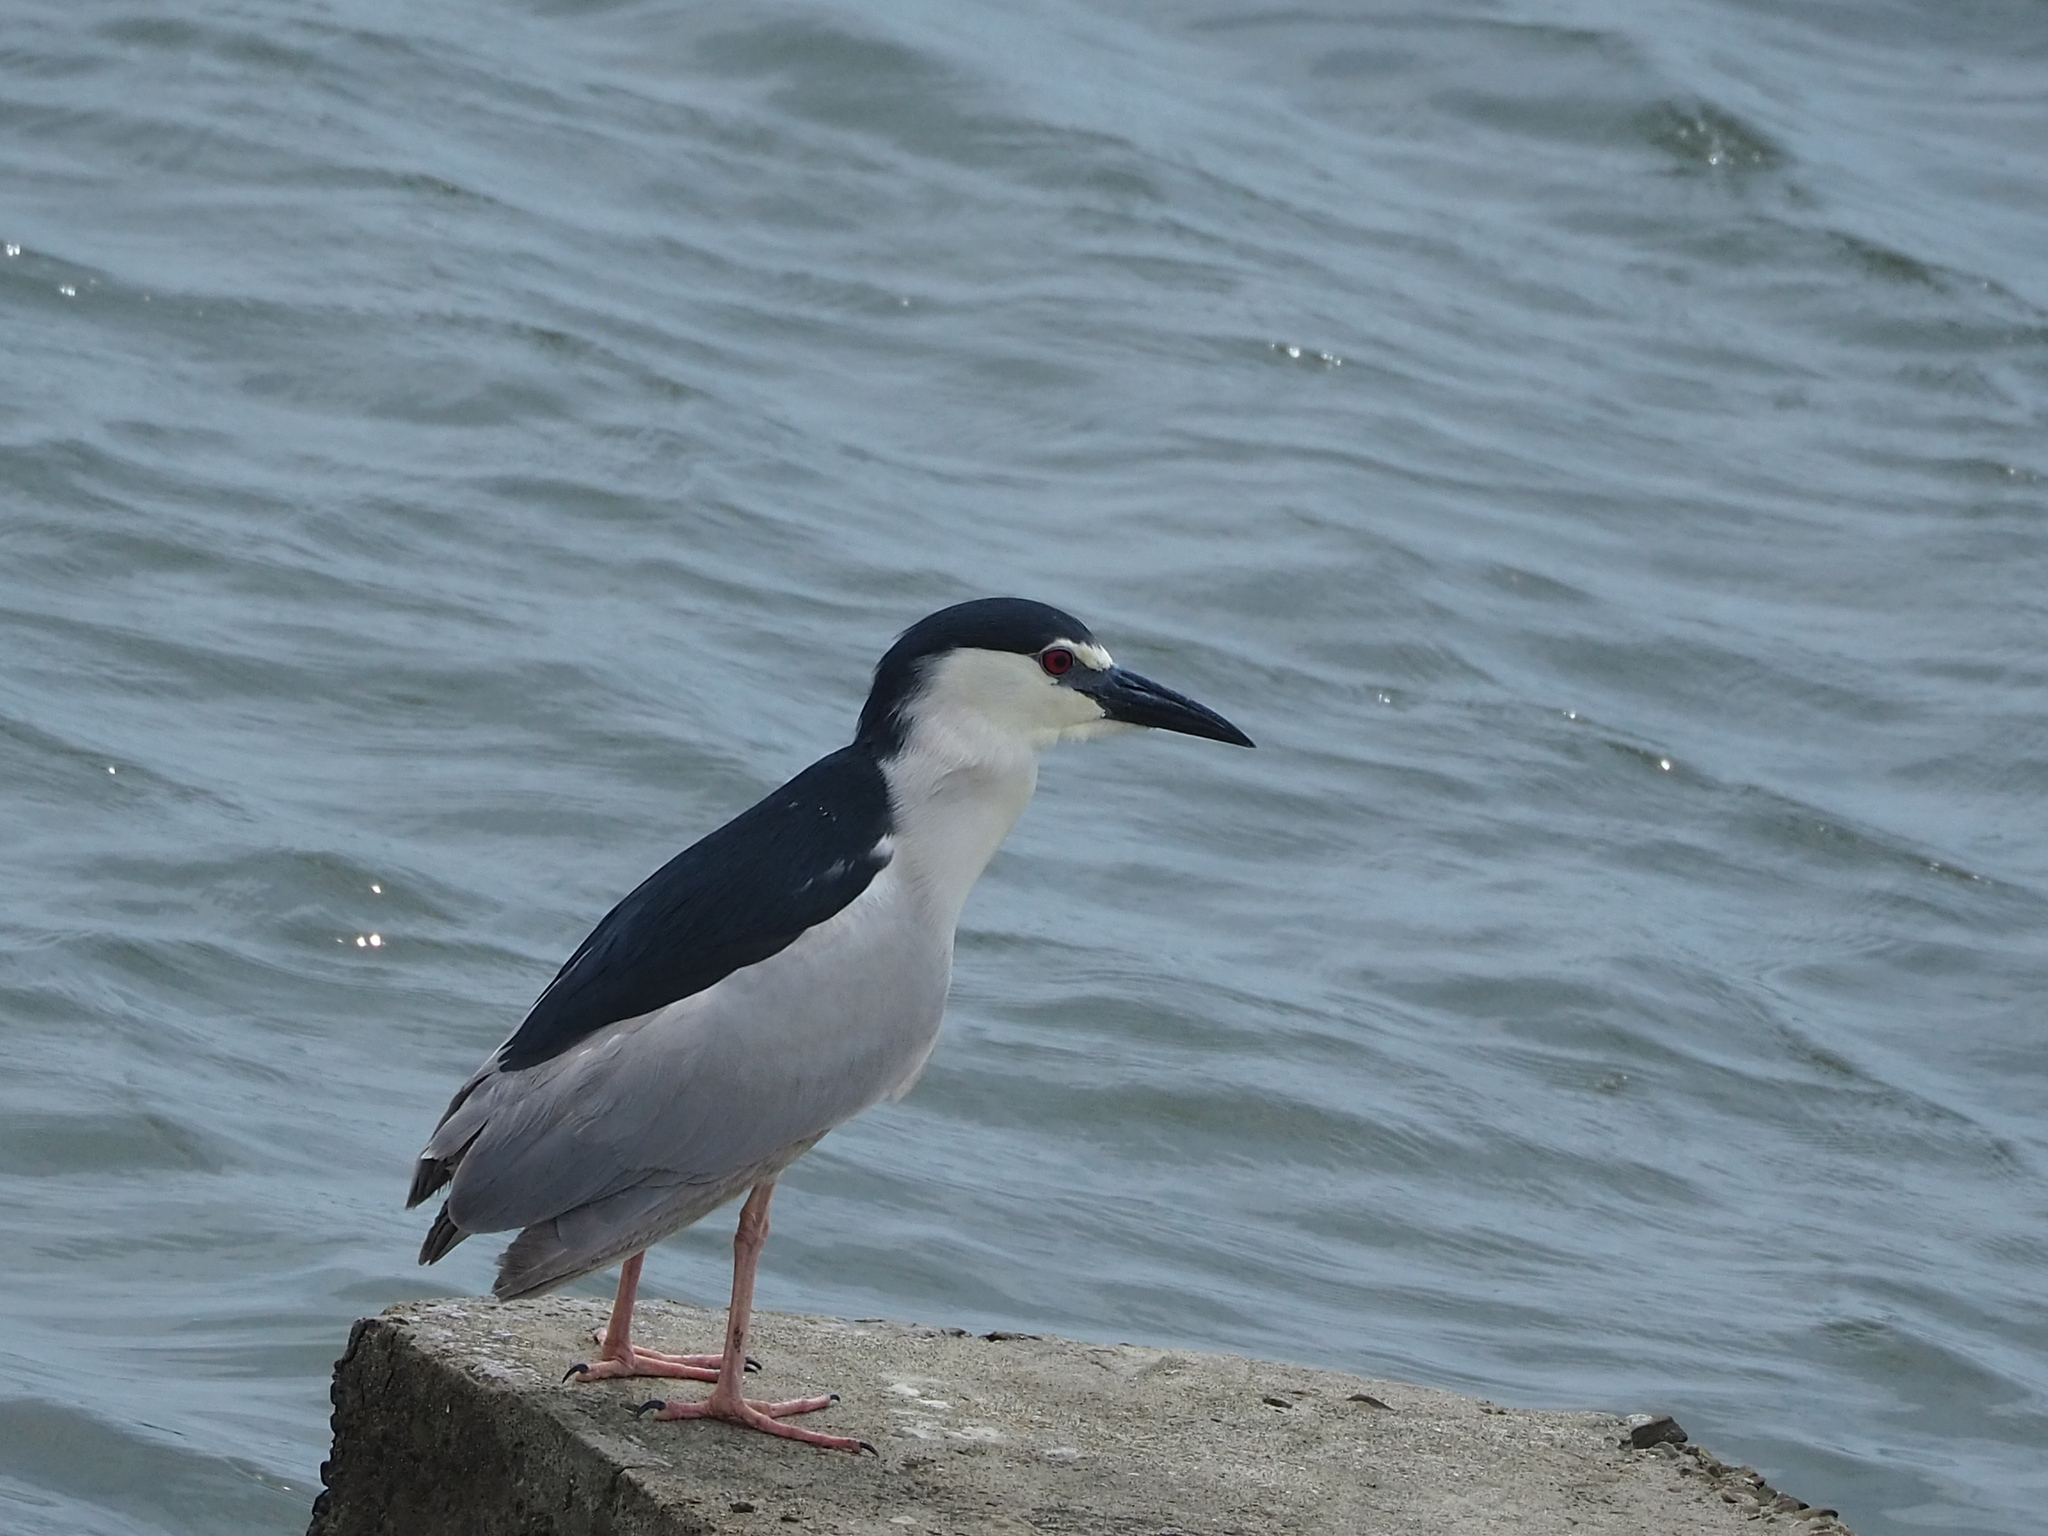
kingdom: Animalia
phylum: Chordata
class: Aves
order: Pelecaniformes
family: Ardeidae
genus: Nycticorax
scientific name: Nycticorax nycticorax
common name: Black-crowned night heron
